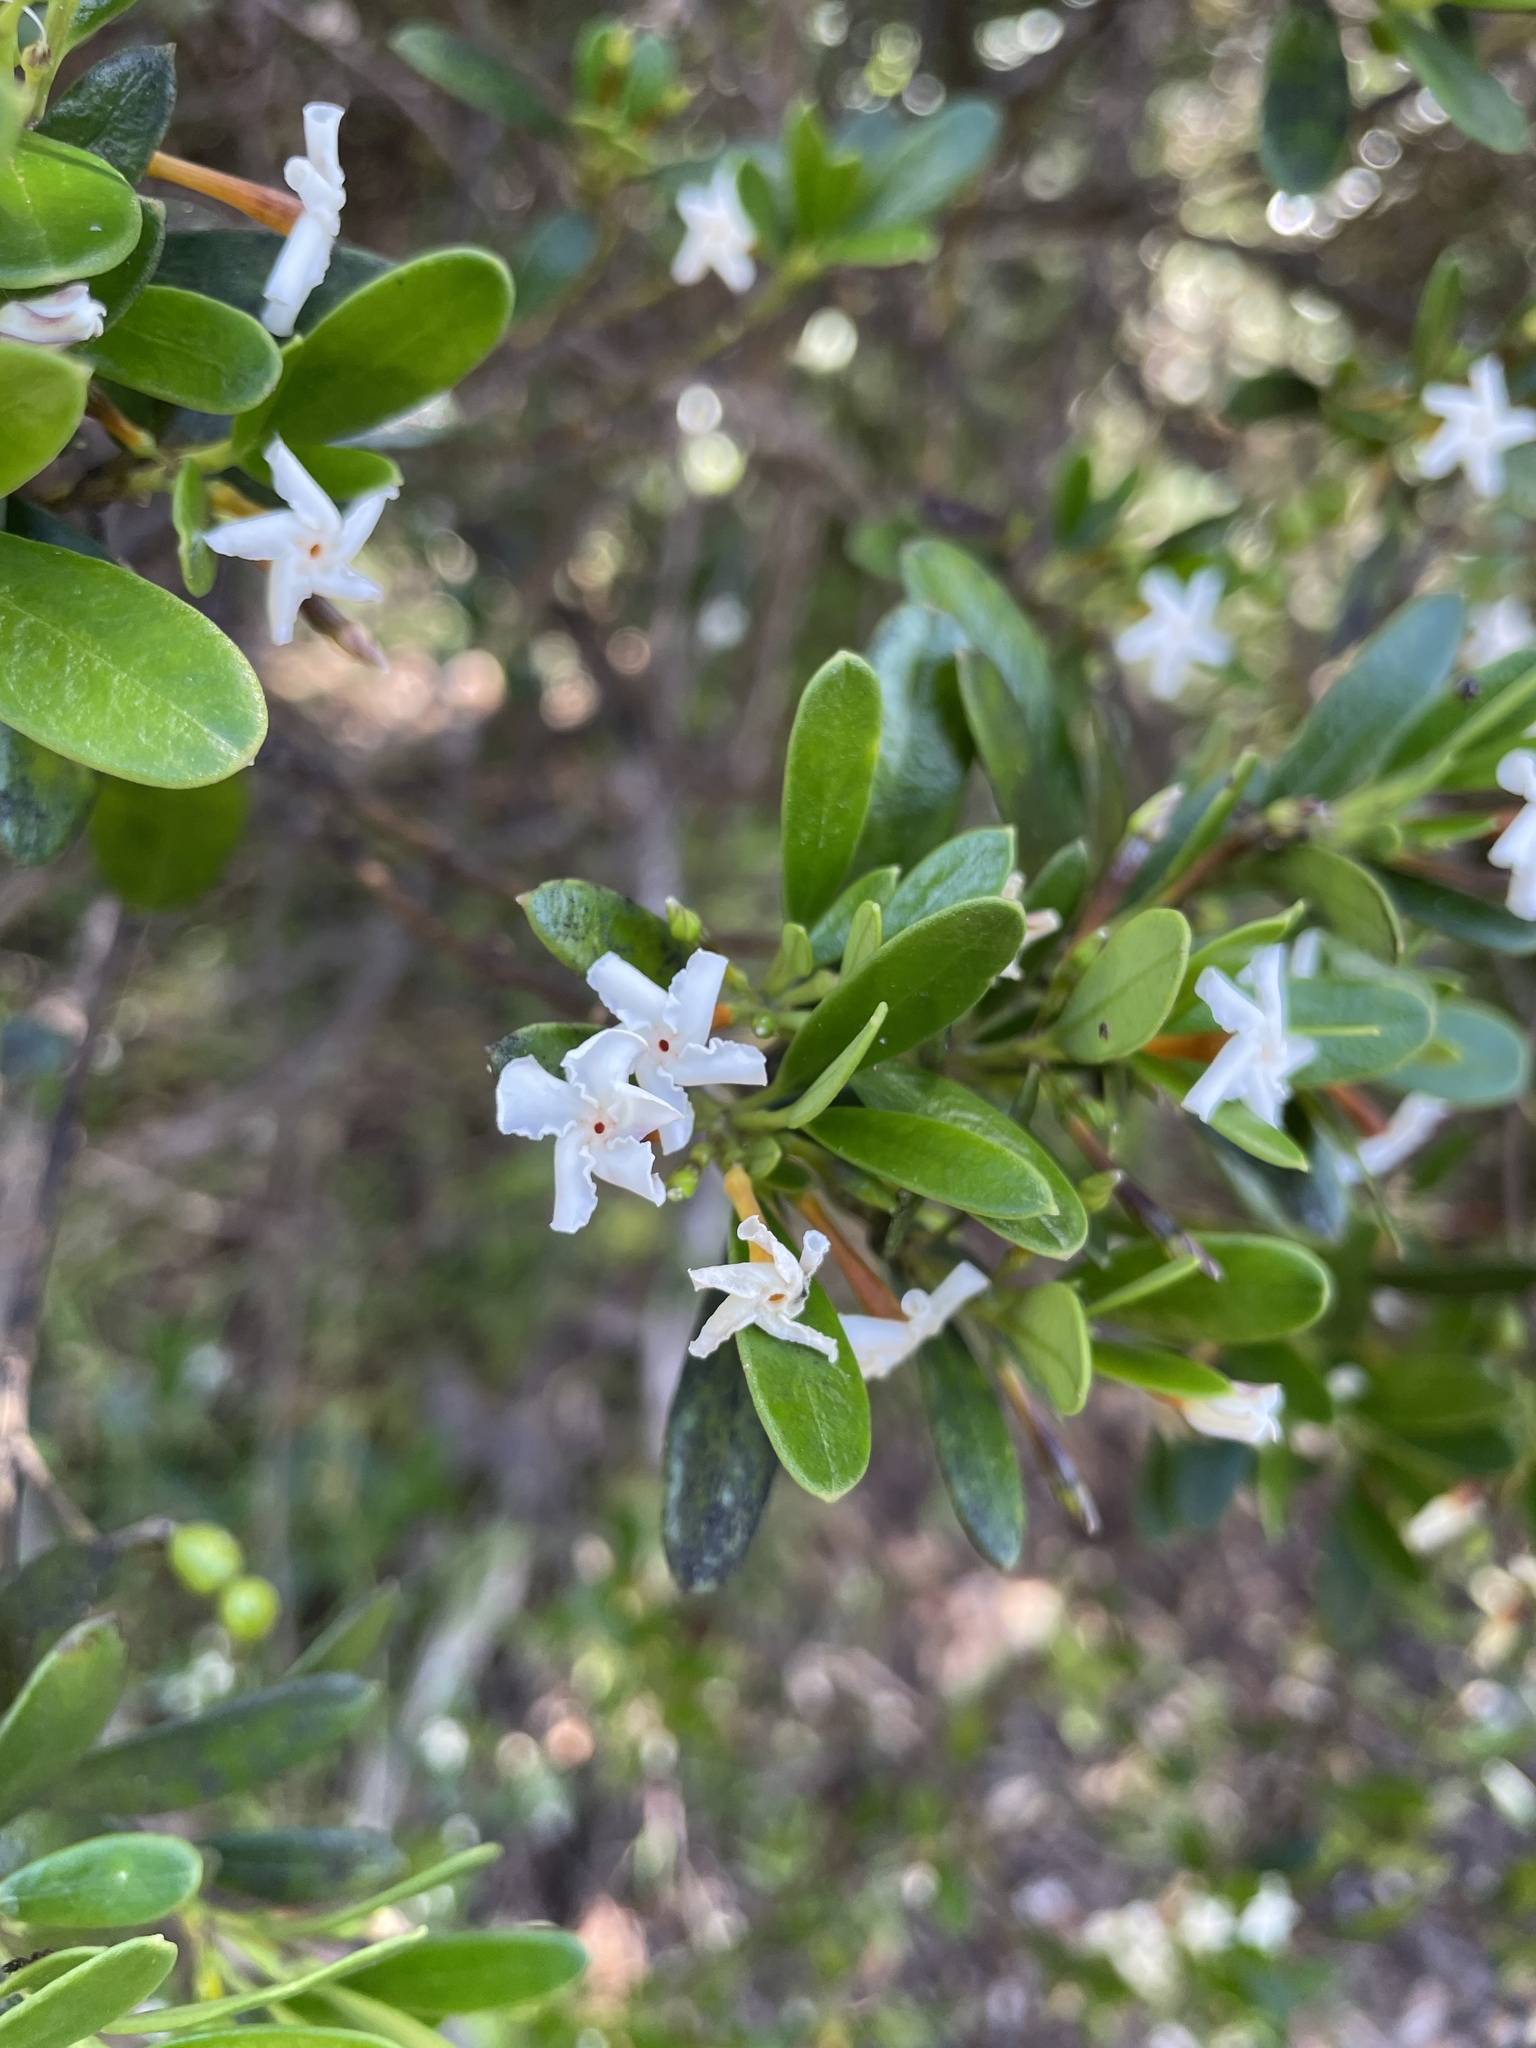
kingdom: Plantae
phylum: Tracheophyta
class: Magnoliopsida
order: Gentianales
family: Apocynaceae
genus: Alyxia
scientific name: Alyxia buxifolia
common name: Dysentery-bush
